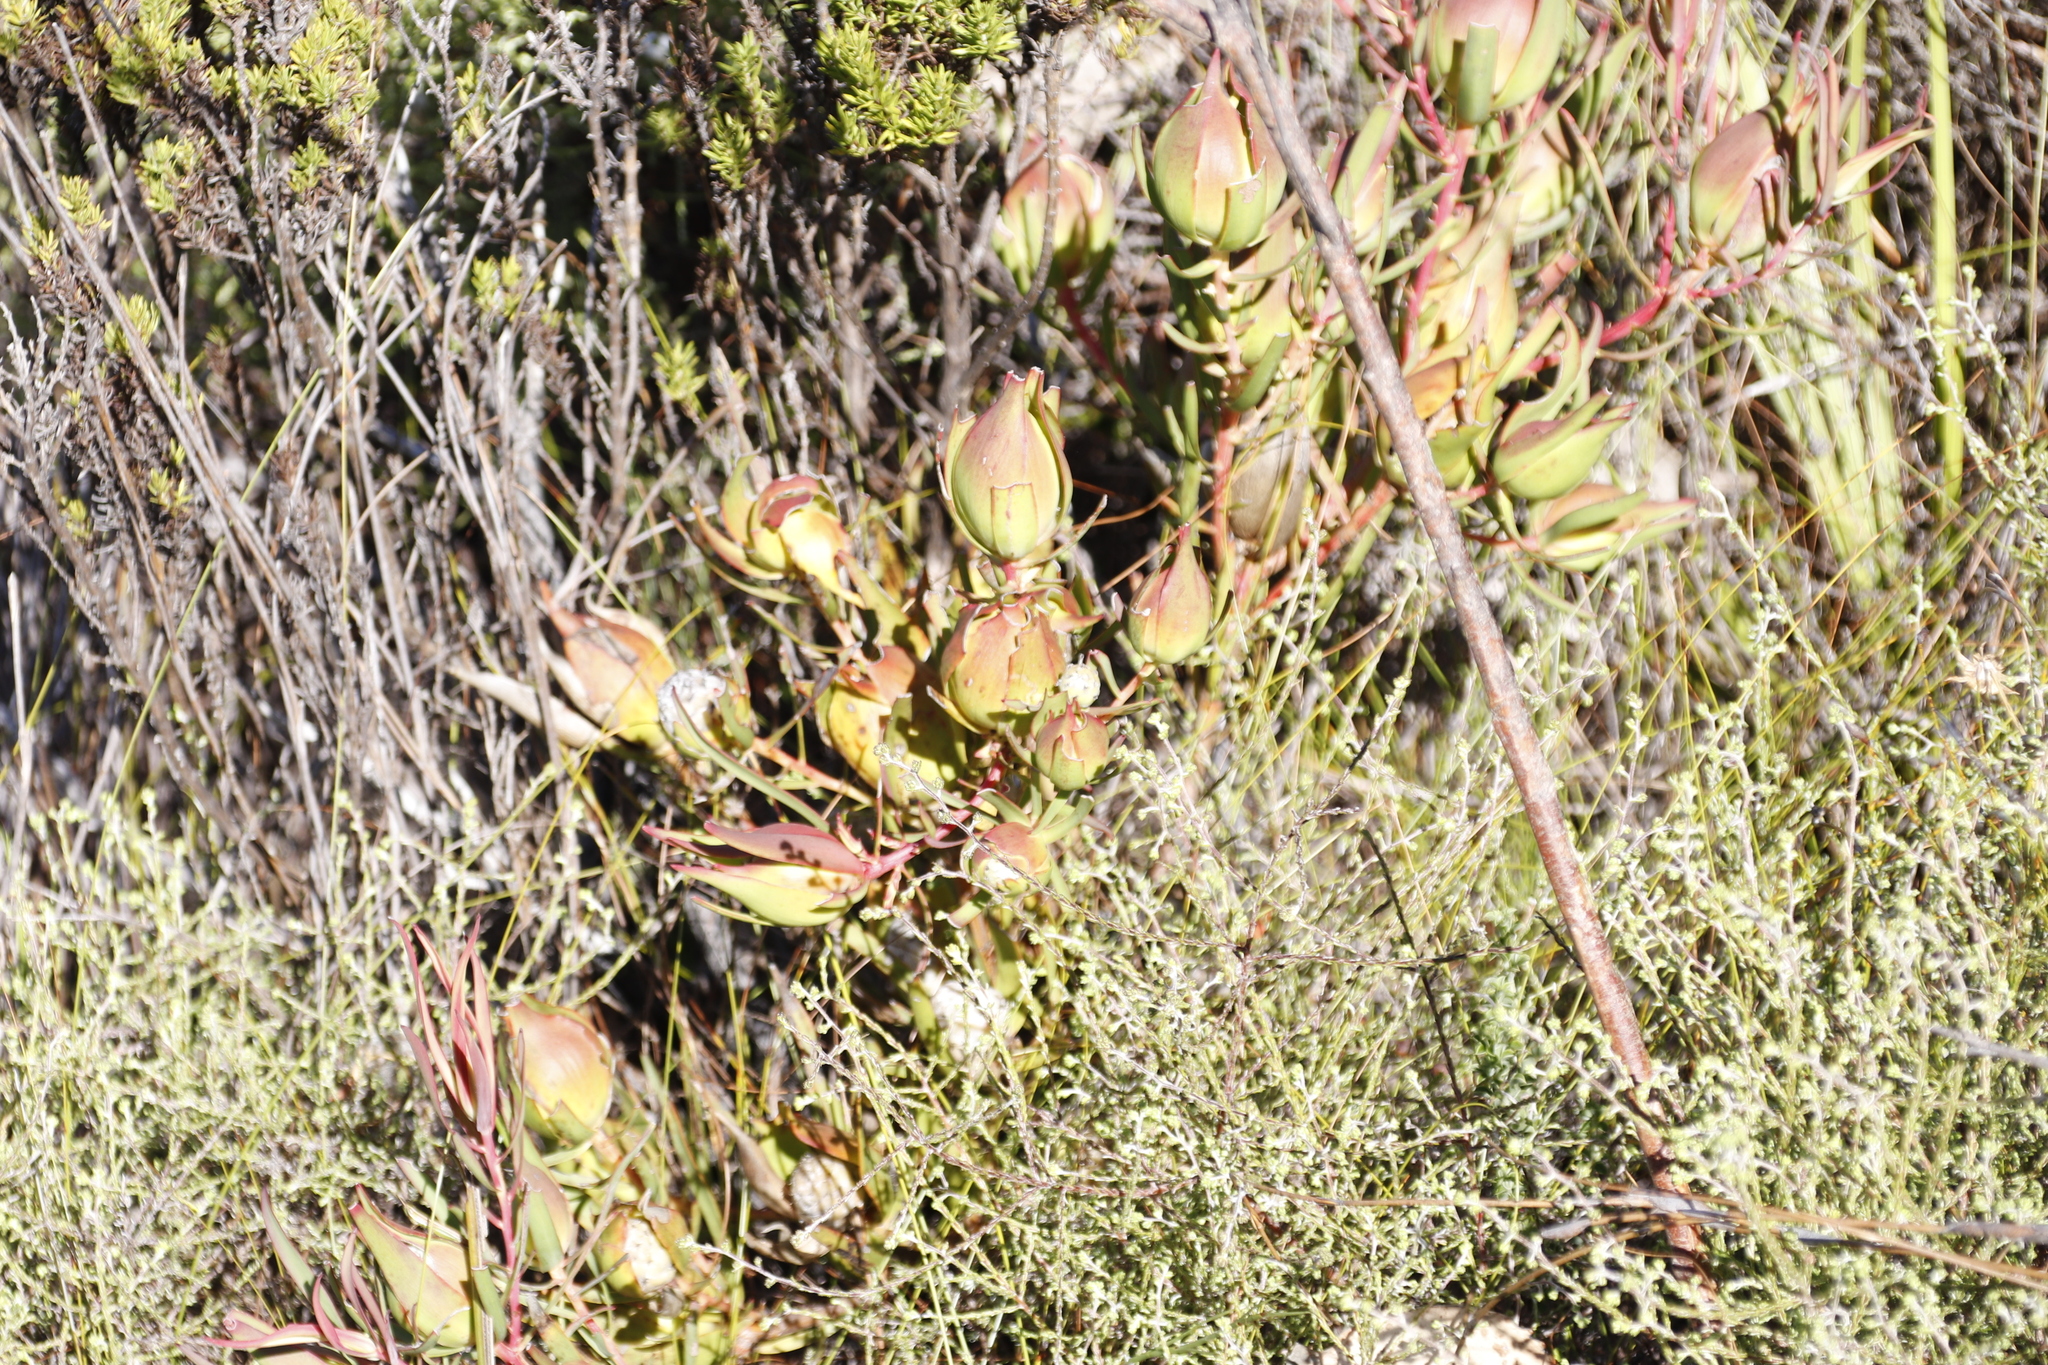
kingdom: Plantae
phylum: Tracheophyta
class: Magnoliopsida
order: Proteales
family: Proteaceae
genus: Leucadendron
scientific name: Leucadendron salignum
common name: Common sunshine conebush
